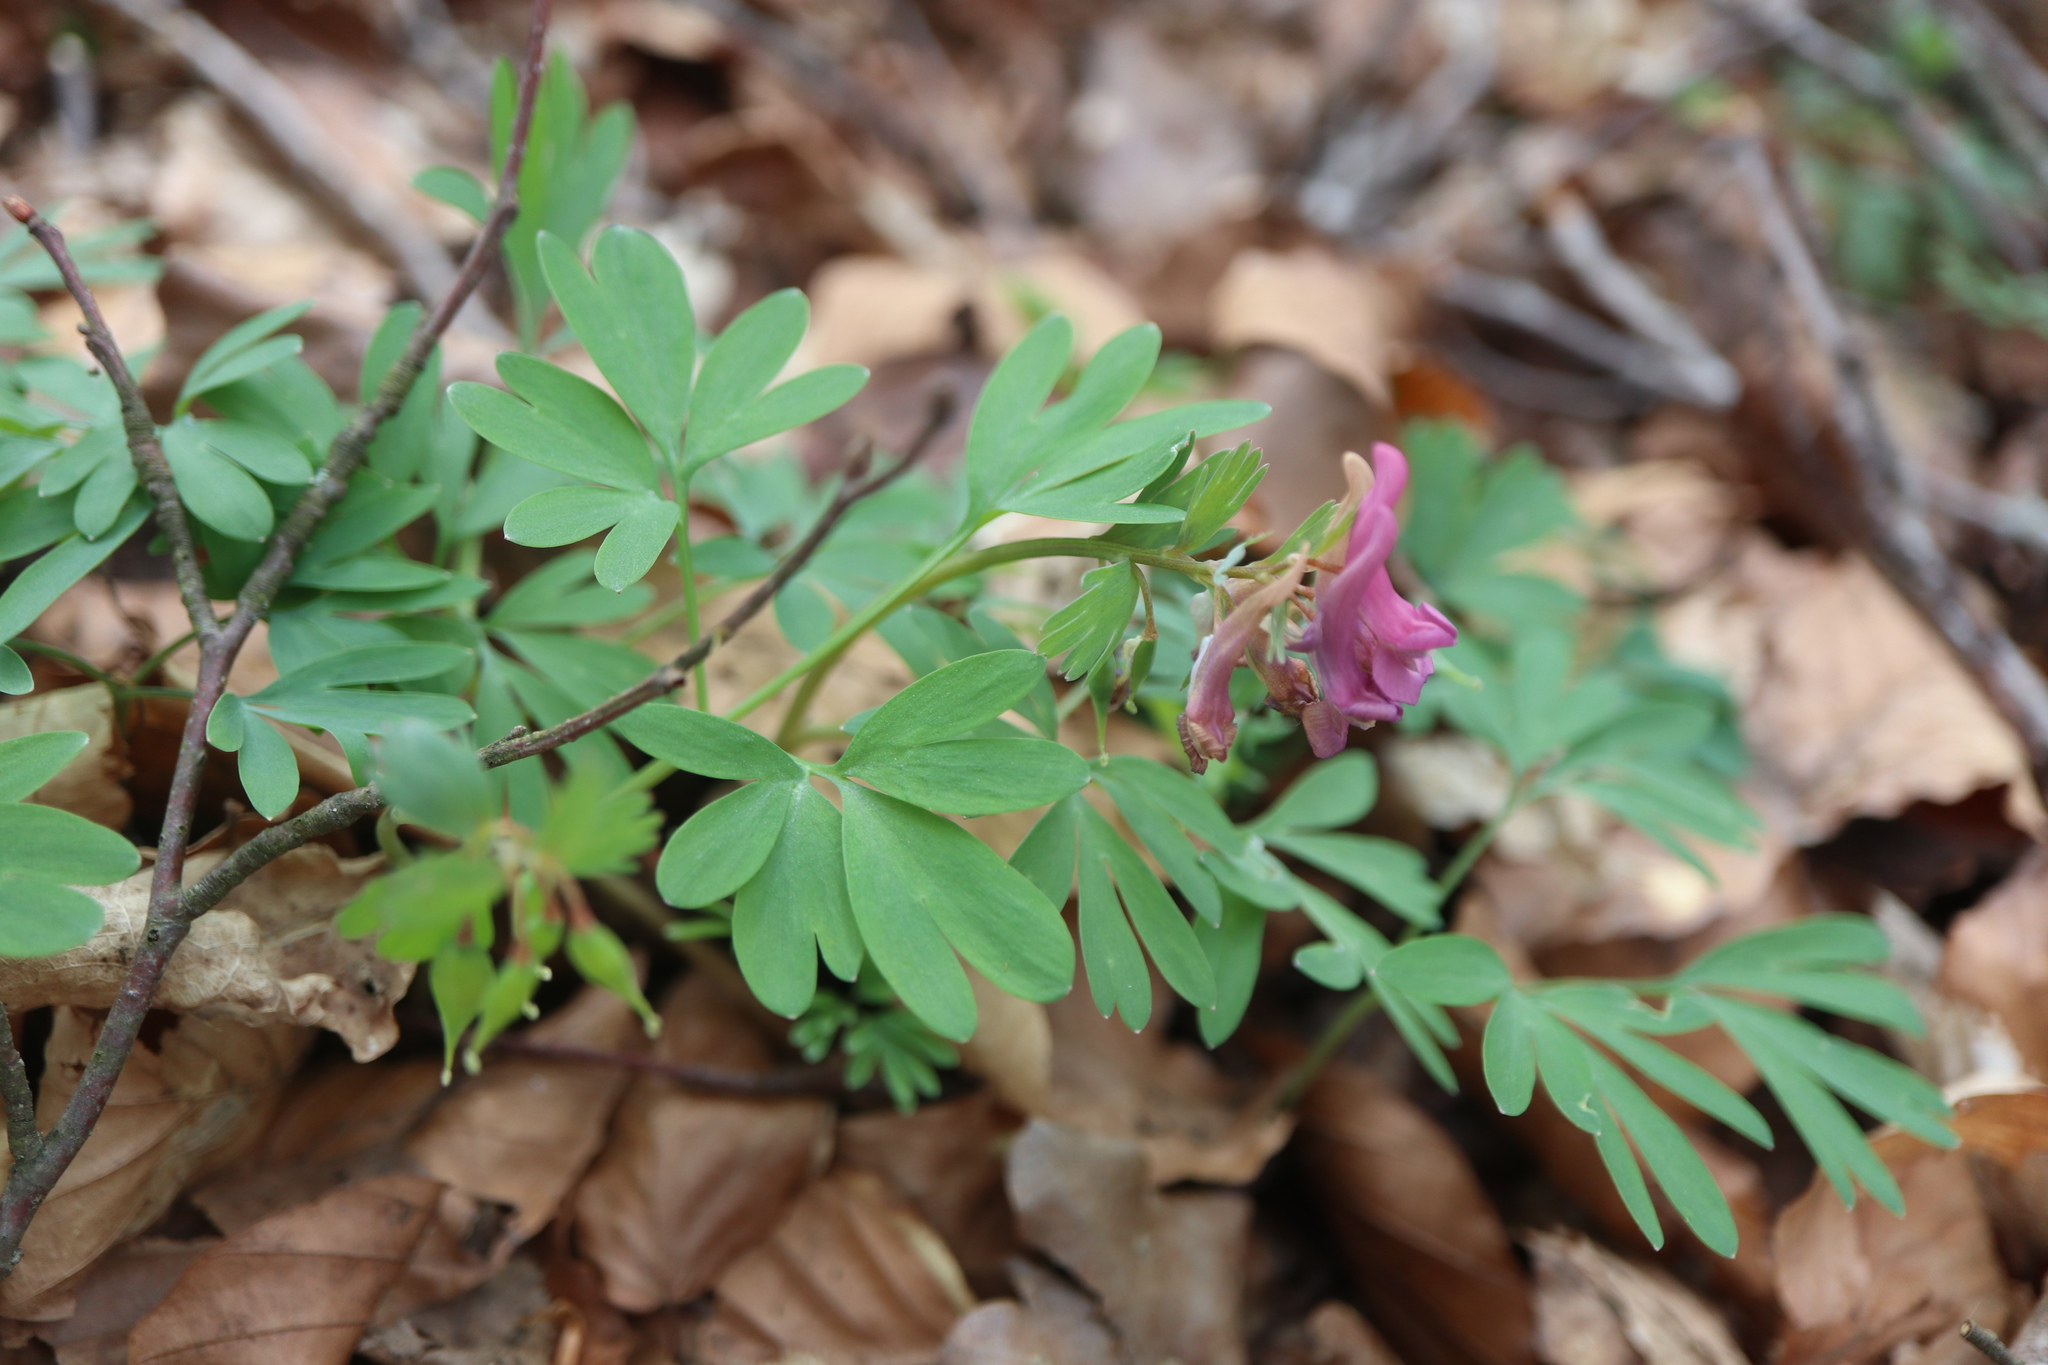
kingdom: Plantae
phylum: Tracheophyta
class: Magnoliopsida
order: Ranunculales
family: Papaveraceae
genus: Corydalis
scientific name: Corydalis solida
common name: Bird-in-a-bush
